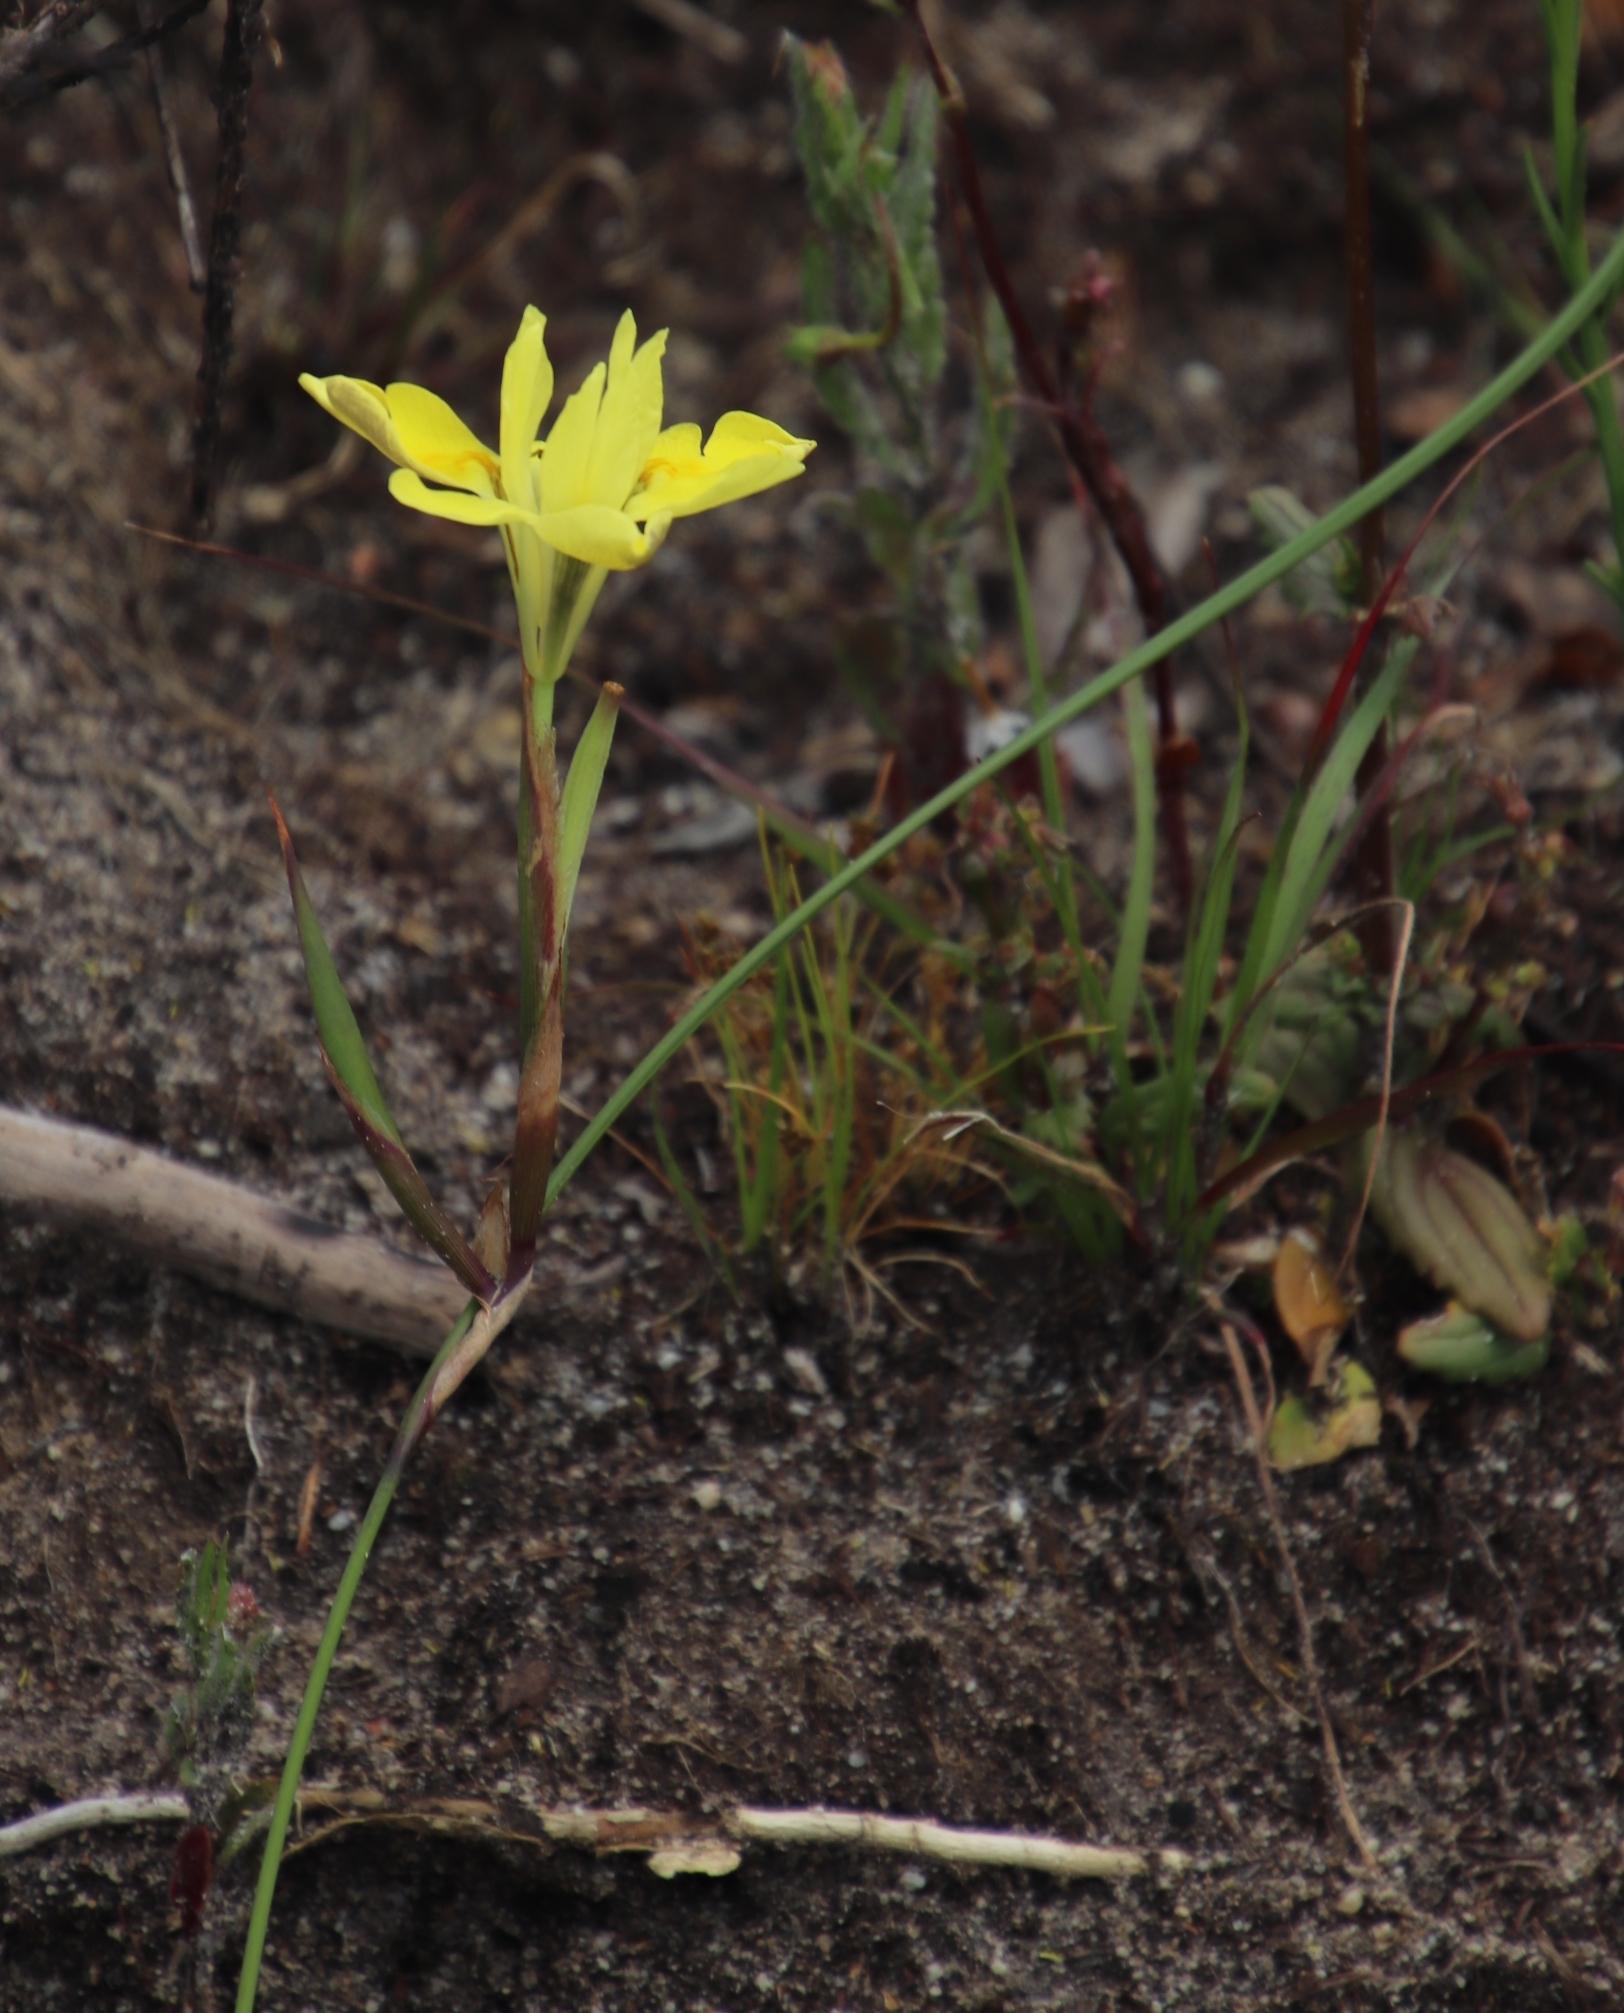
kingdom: Plantae
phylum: Tracheophyta
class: Liliopsida
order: Asparagales
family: Iridaceae
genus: Moraea
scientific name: Moraea fugax
